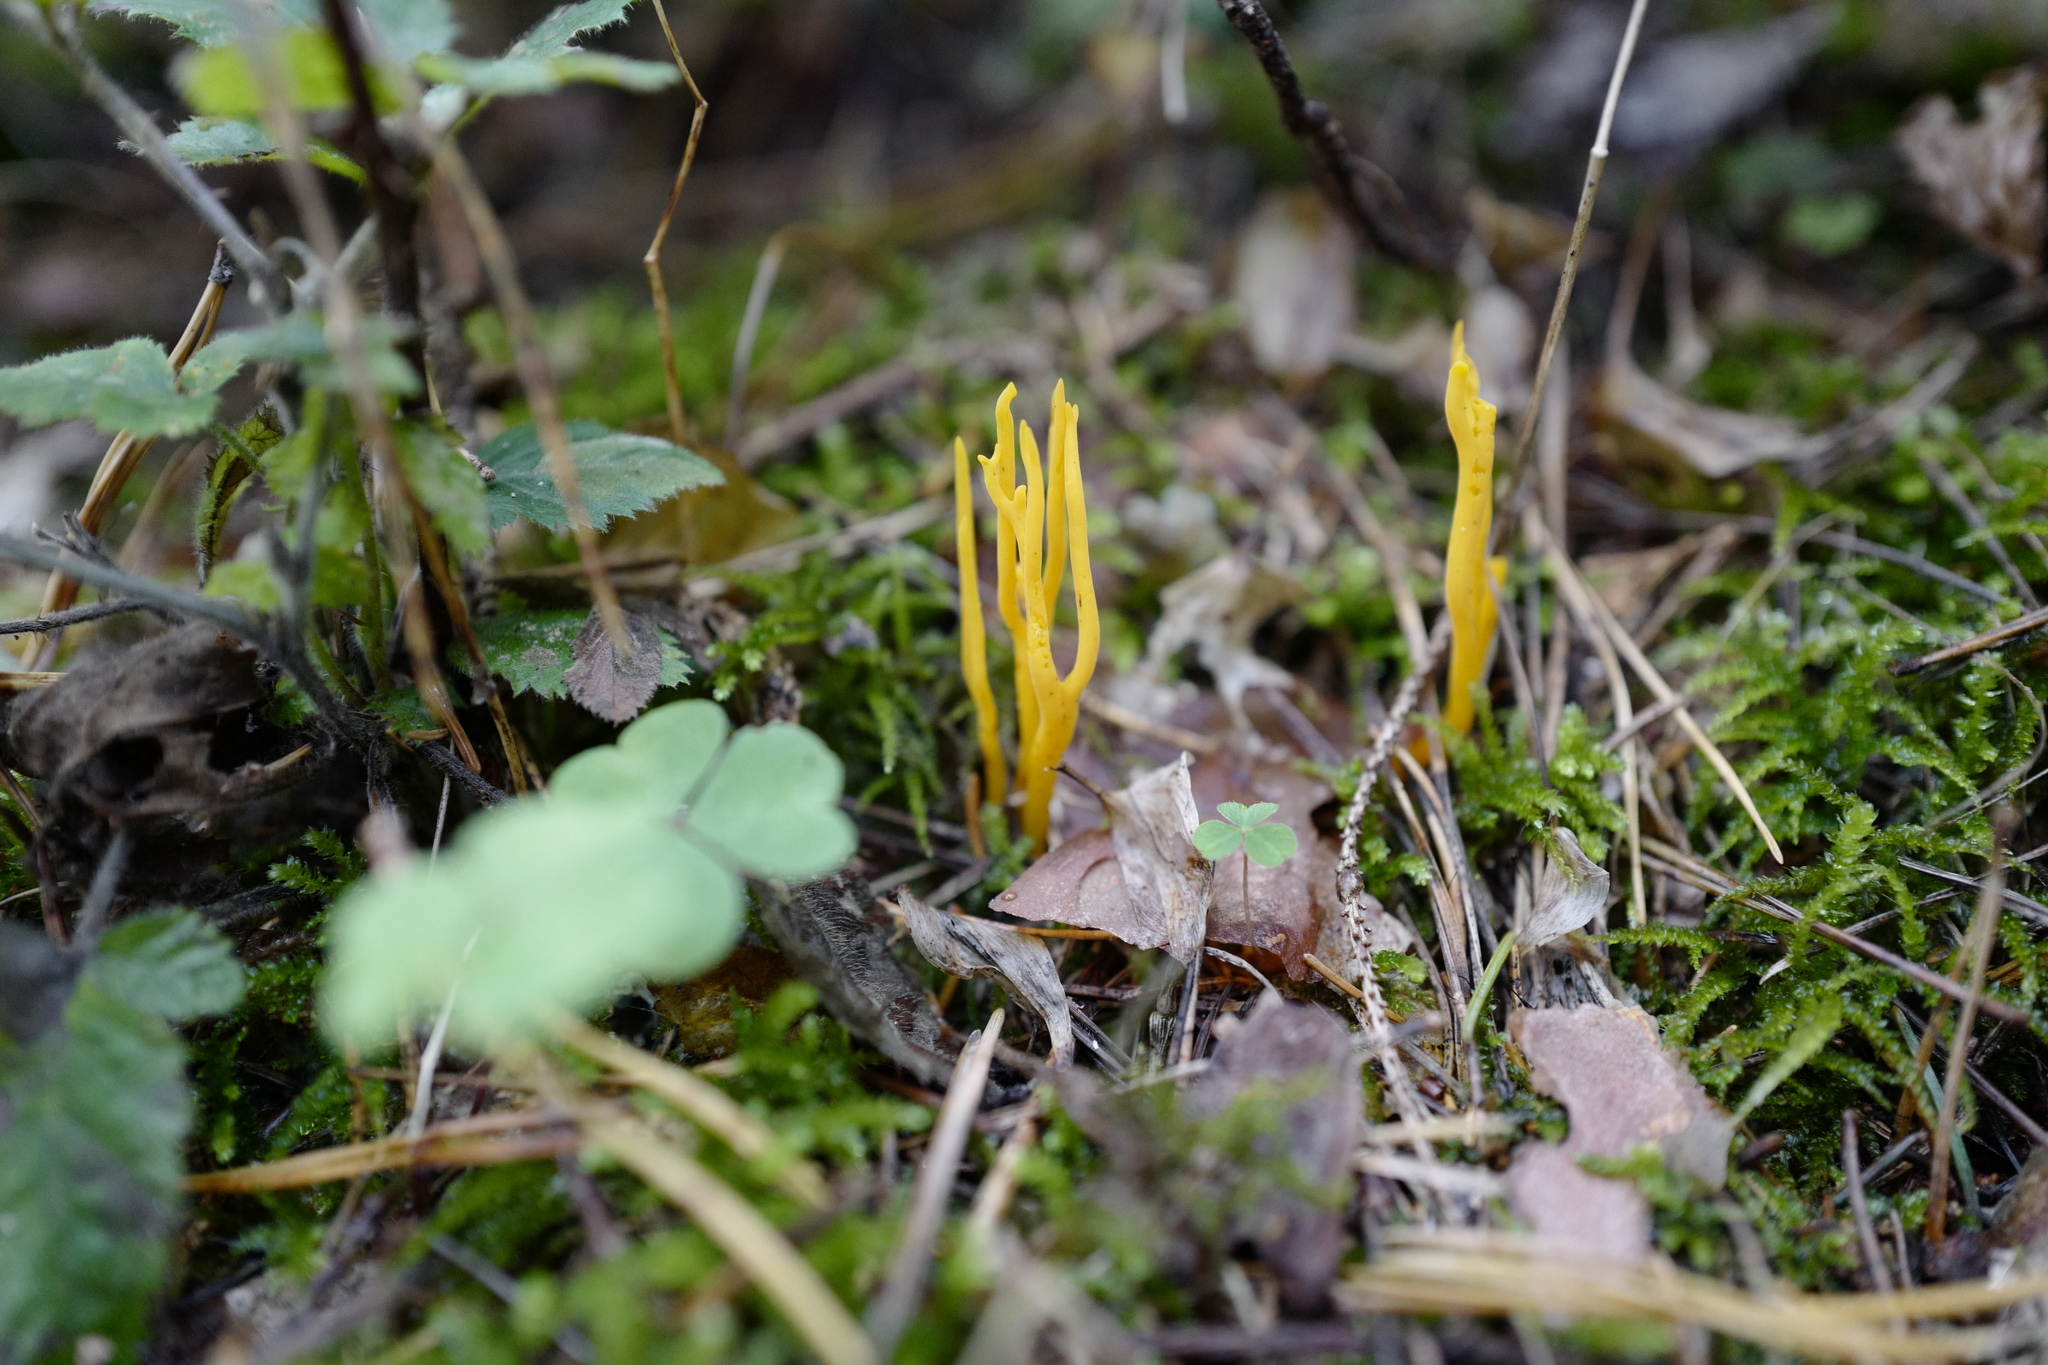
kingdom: Fungi
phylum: Basidiomycota
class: Dacrymycetes
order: Dacrymycetales
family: Dacrymycetaceae
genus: Calocera
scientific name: Calocera viscosa
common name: Yellow stagshorn
